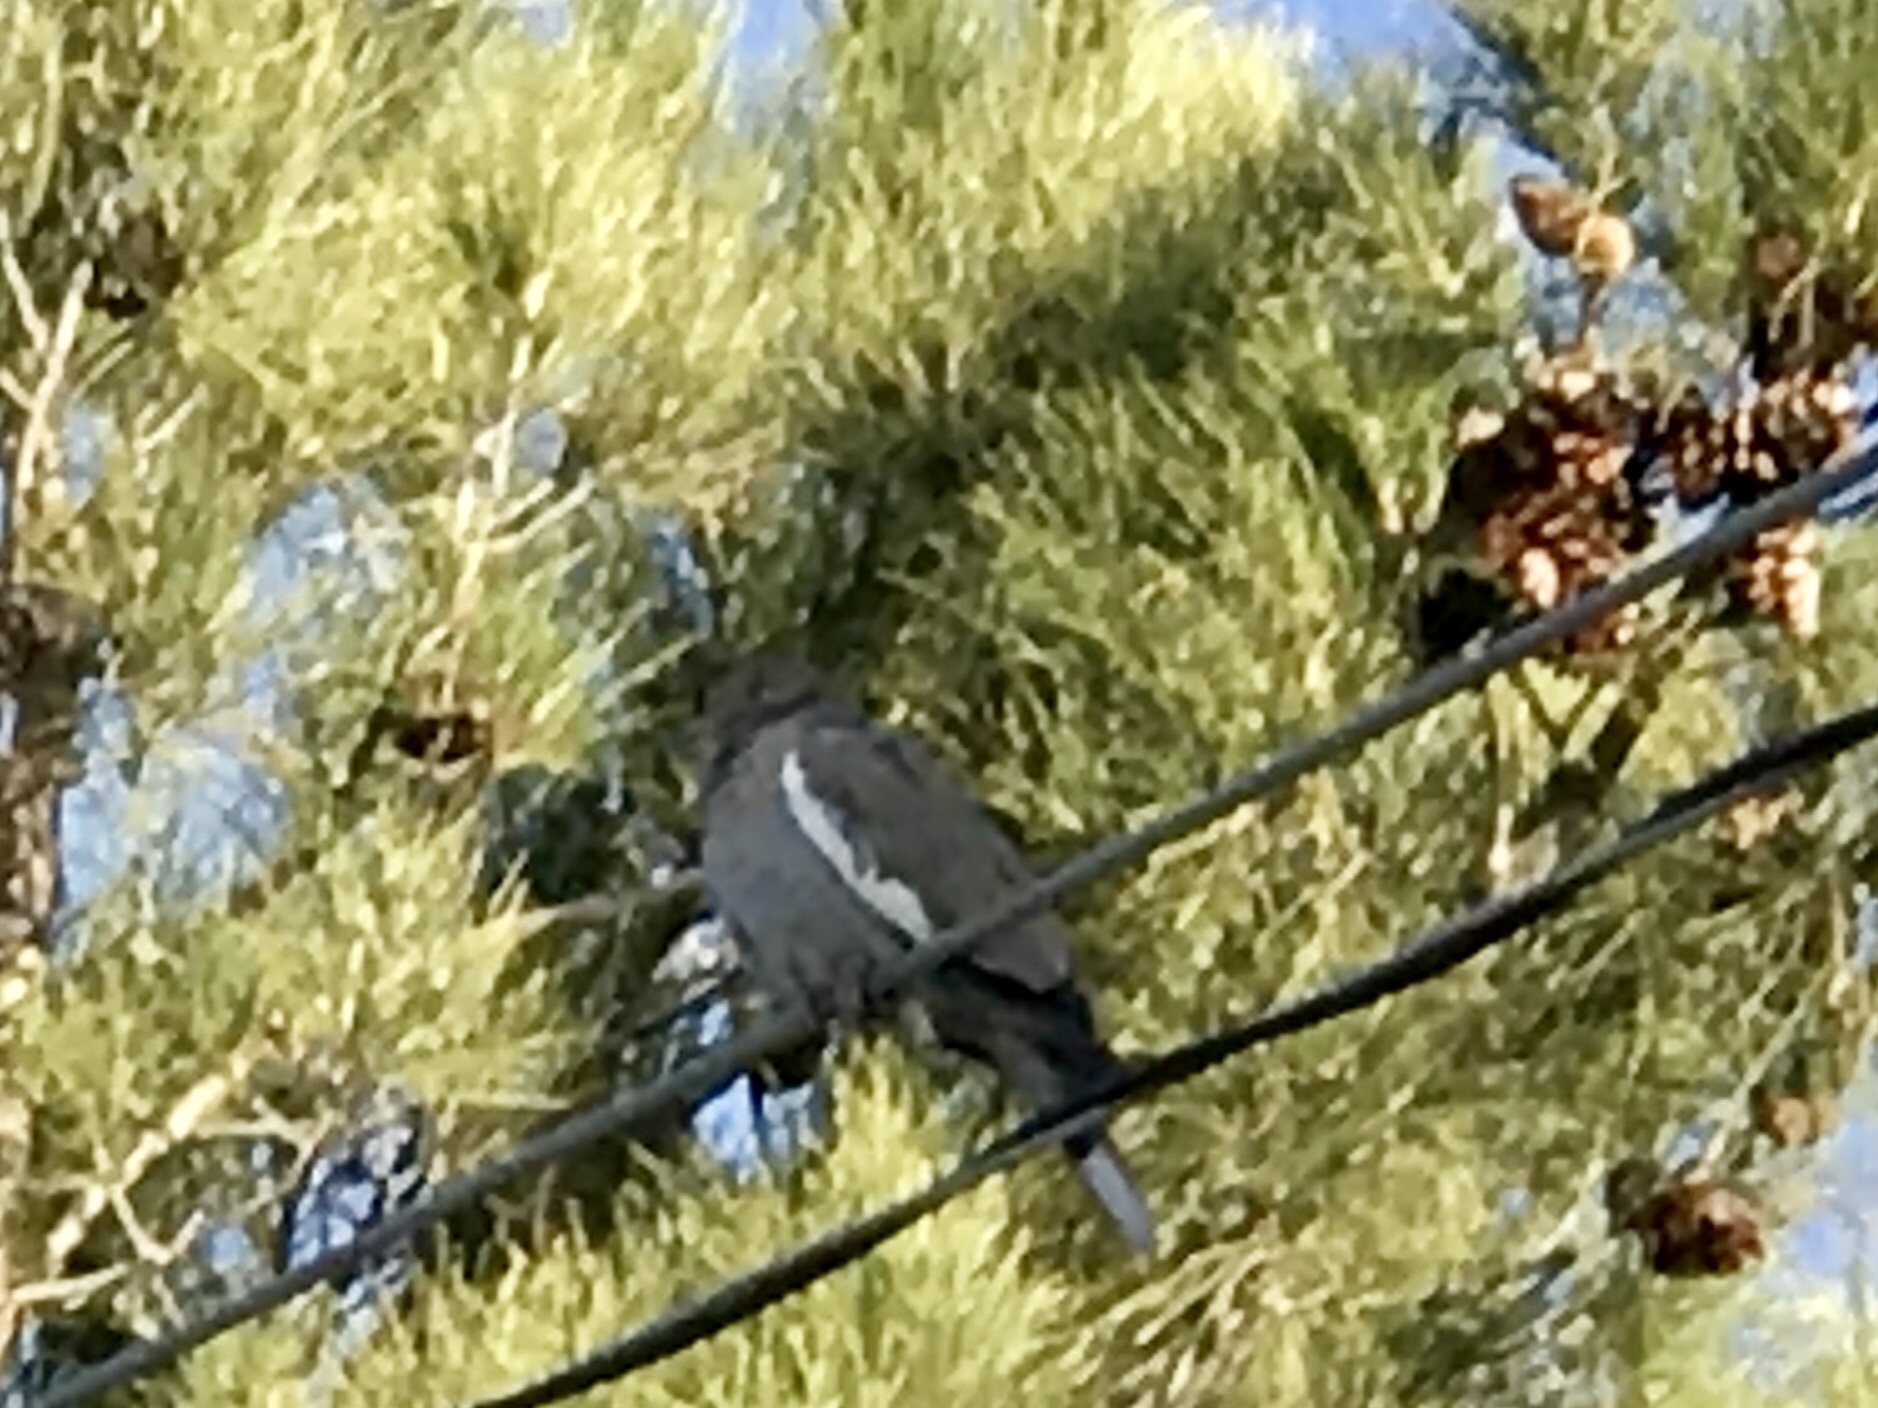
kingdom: Animalia
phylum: Chordata
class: Aves
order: Columbiformes
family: Columbidae
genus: Zenaida
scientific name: Zenaida asiatica
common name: White-winged dove
